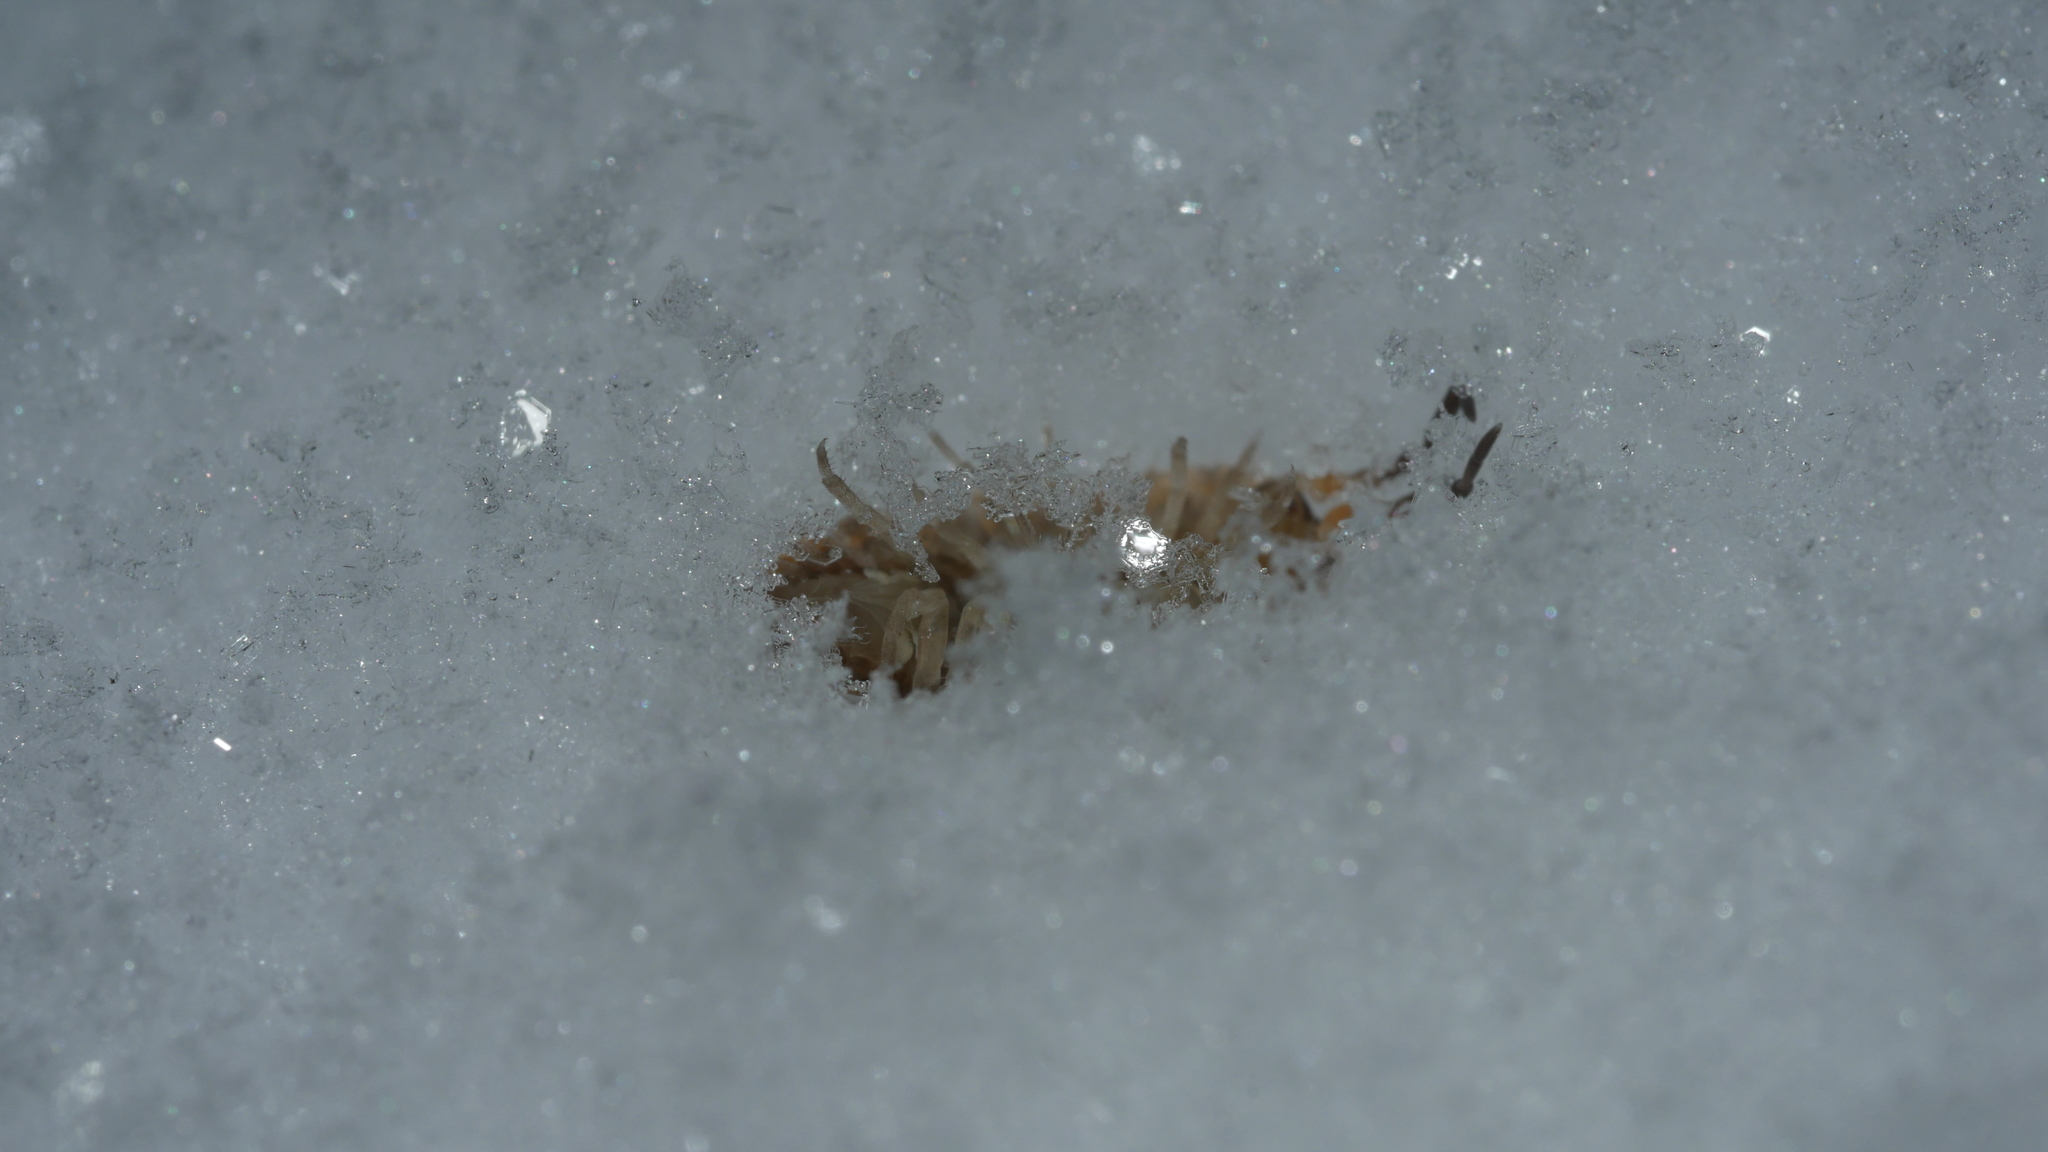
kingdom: Animalia
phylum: Arthropoda
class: Malacostraca
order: Isopoda
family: Porcellionidae
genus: Porcellio
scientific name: Porcellio scaber
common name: Common rough woodlouse
